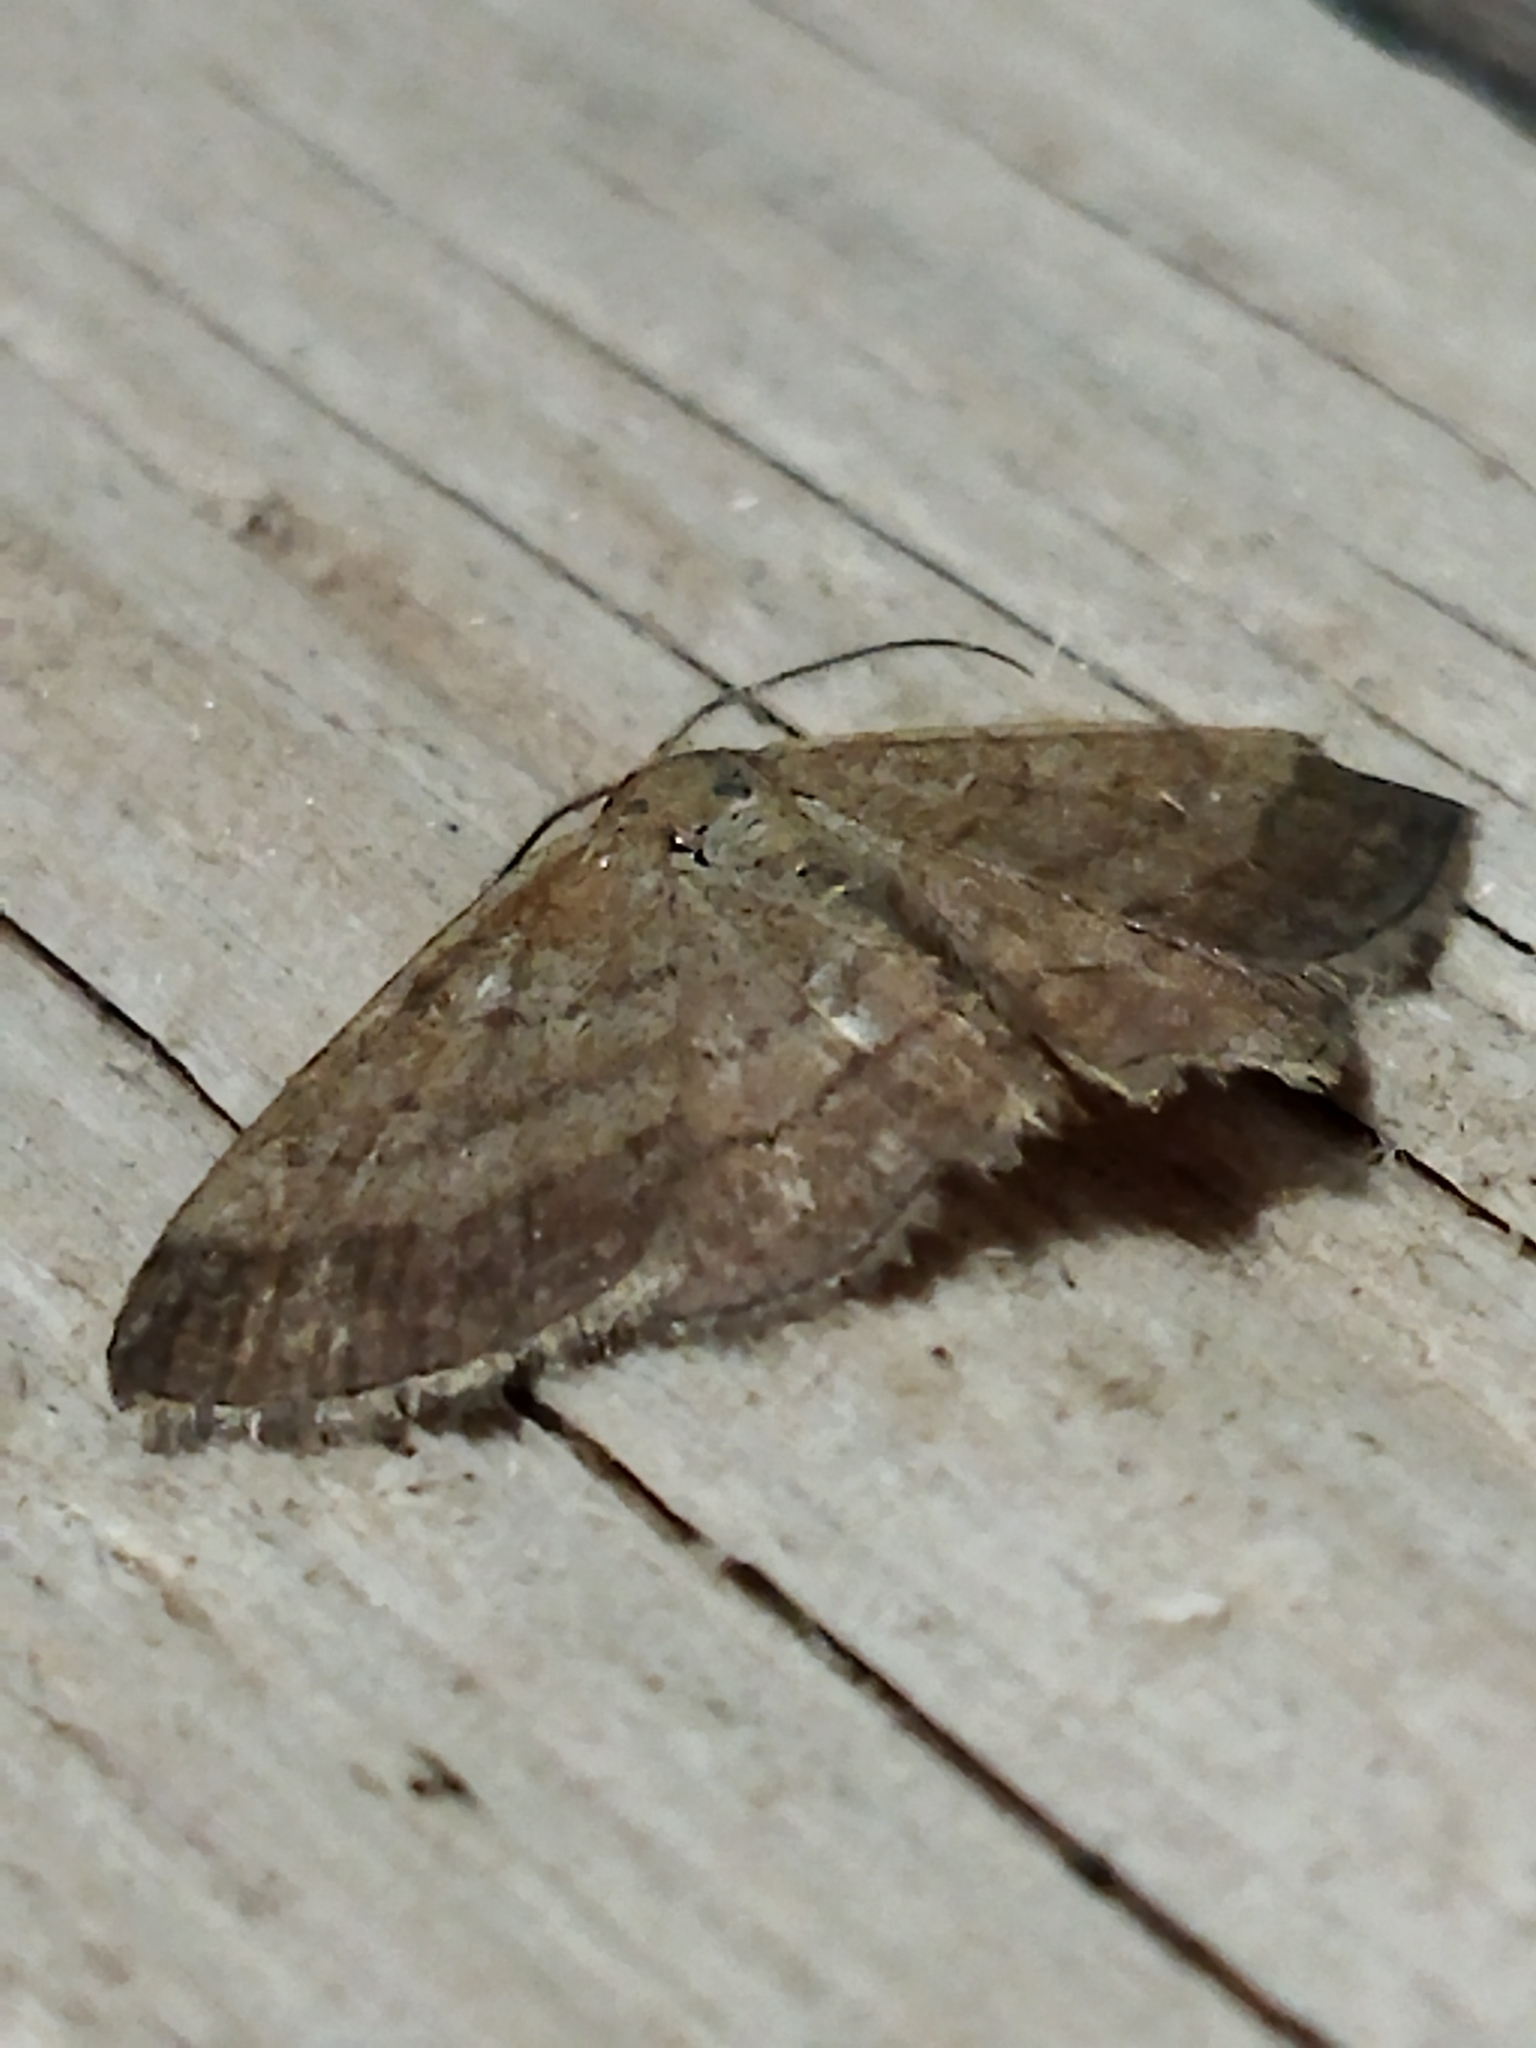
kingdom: Animalia
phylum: Arthropoda
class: Insecta
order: Lepidoptera
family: Geometridae
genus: Scopula
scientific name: Scopula rubiginata
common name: Tawny wave
